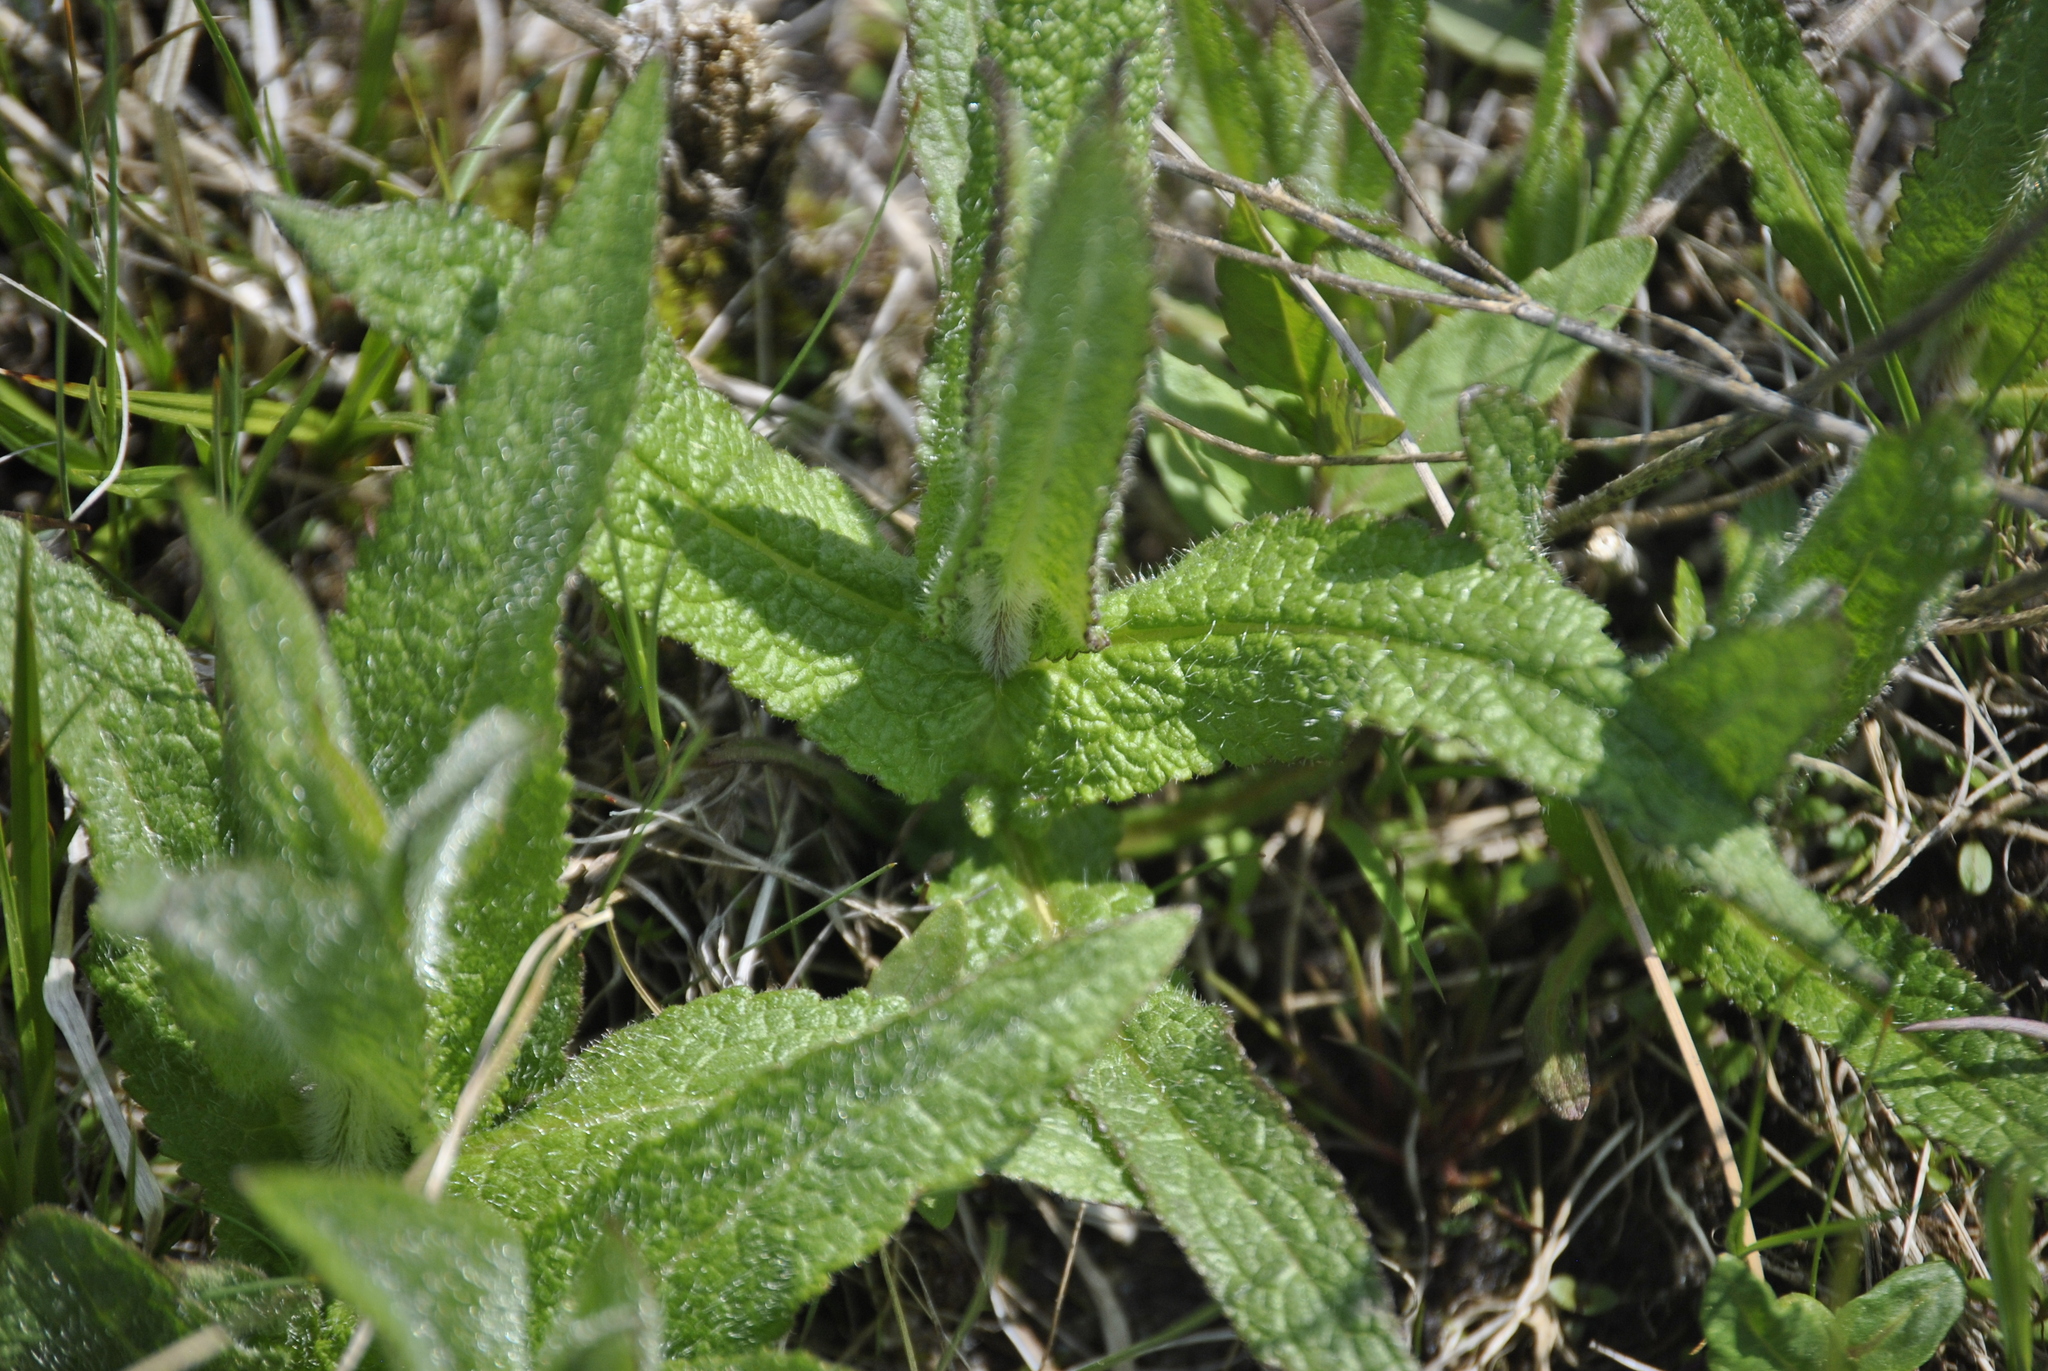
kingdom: Plantae
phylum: Tracheophyta
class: Magnoliopsida
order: Asterales
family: Asteraceae
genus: Eupatorium
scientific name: Eupatorium perfoliatum
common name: Boneset
